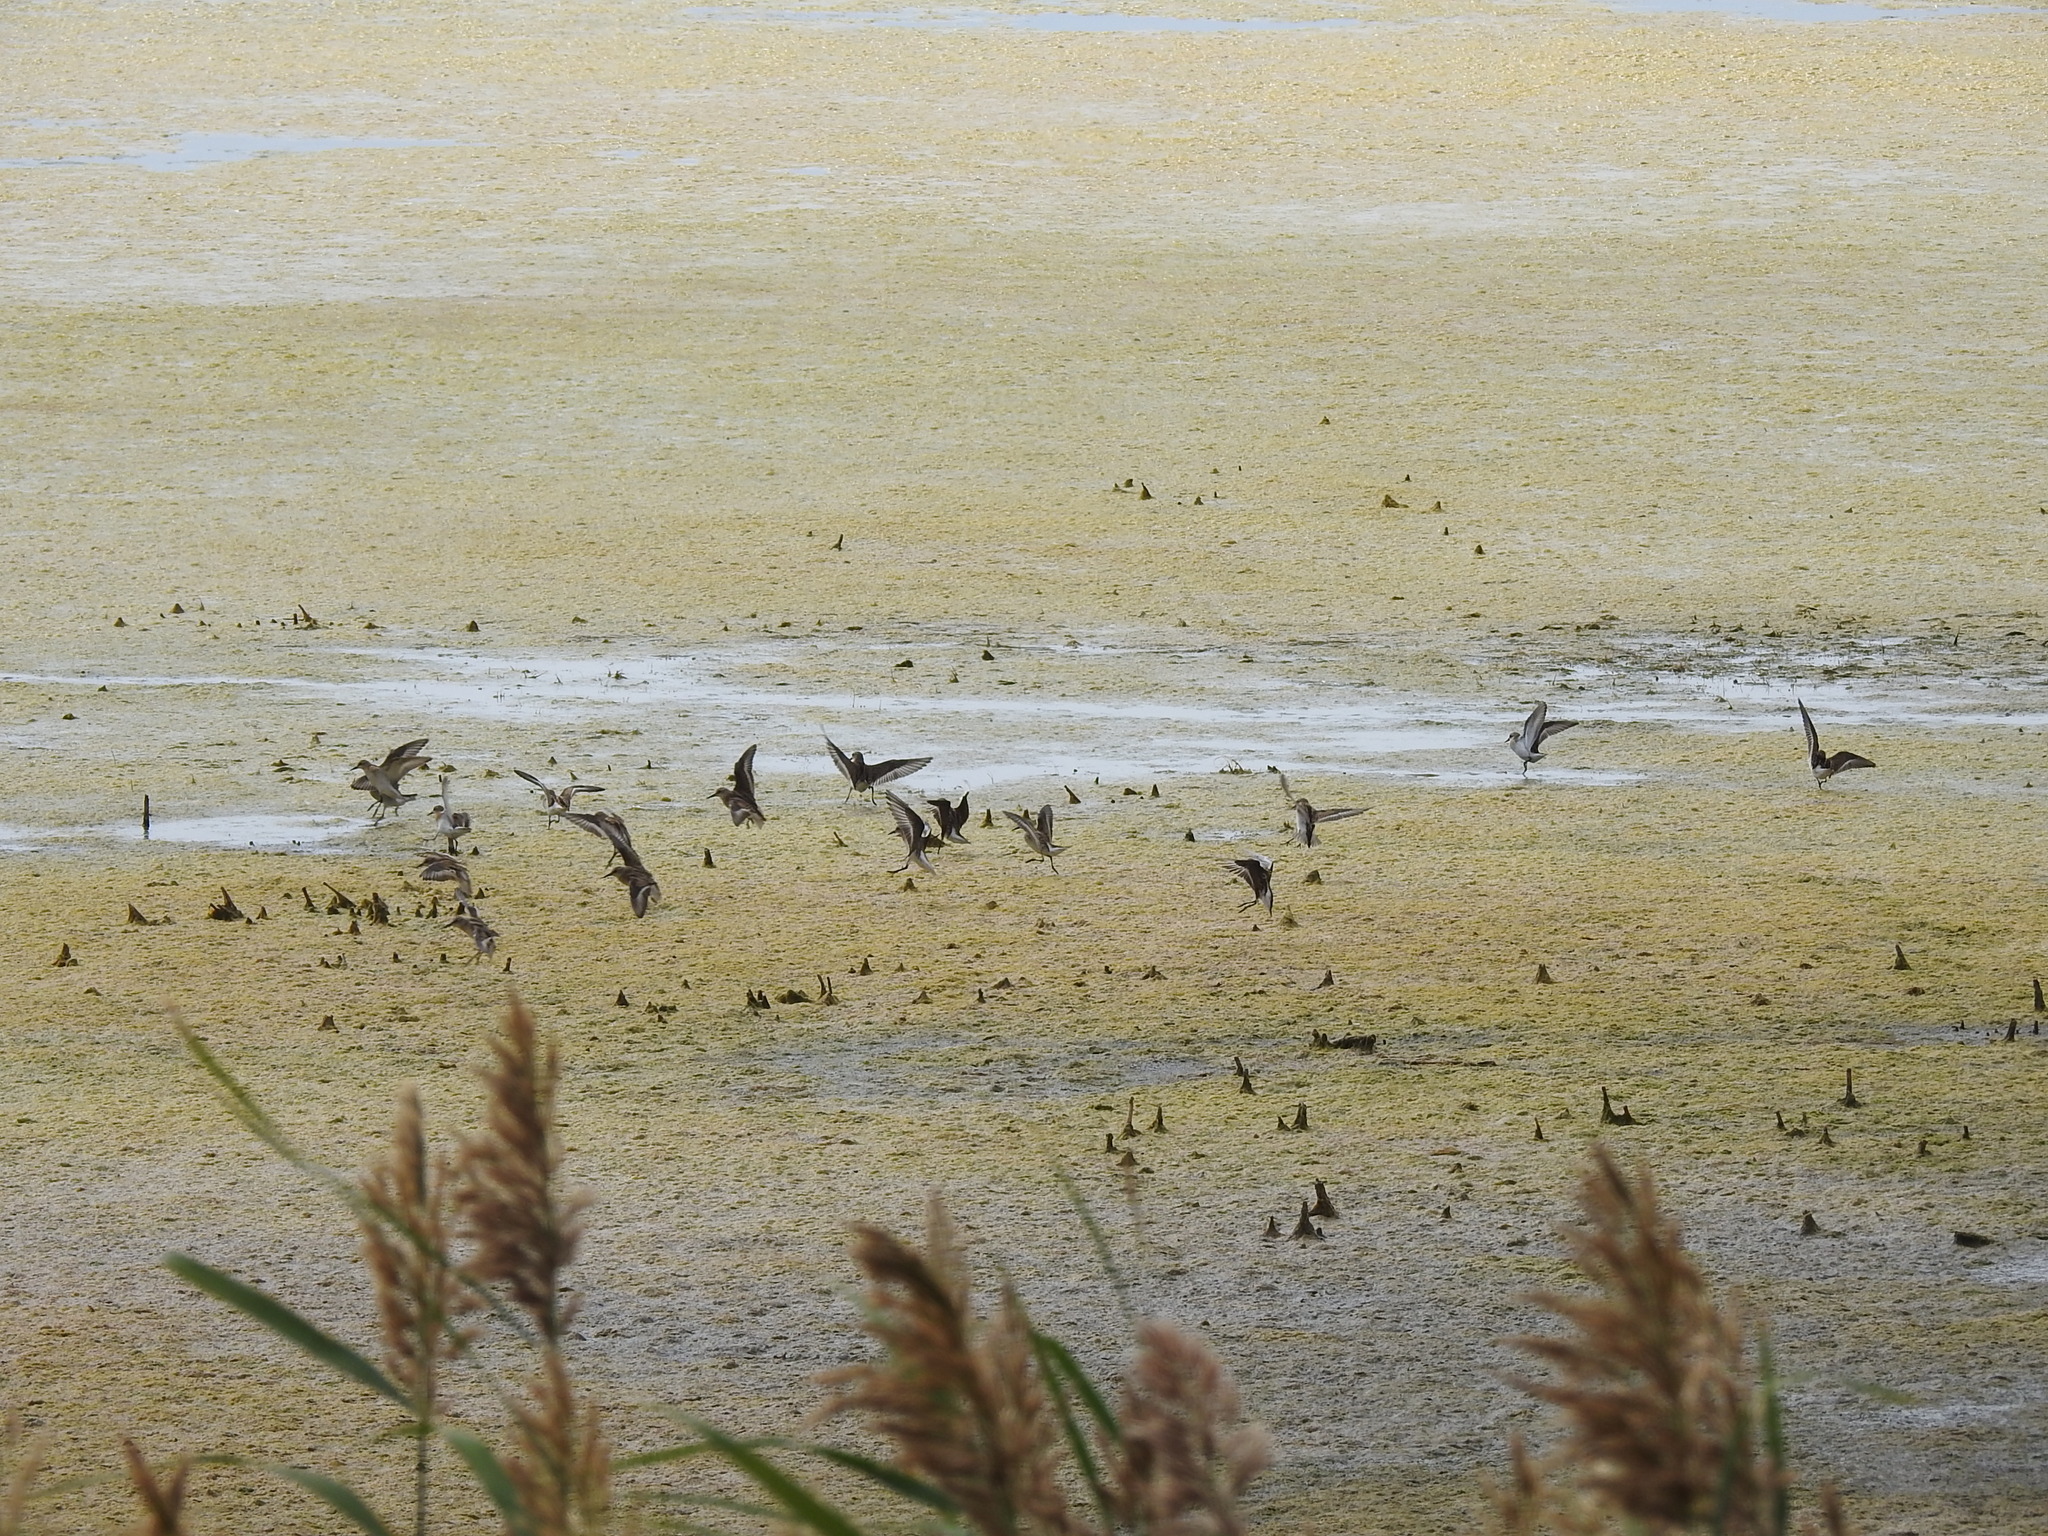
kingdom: Animalia
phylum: Chordata
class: Aves
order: Charadriiformes
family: Scolopacidae
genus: Calidris
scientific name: Calidris minuta
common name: Little stint
